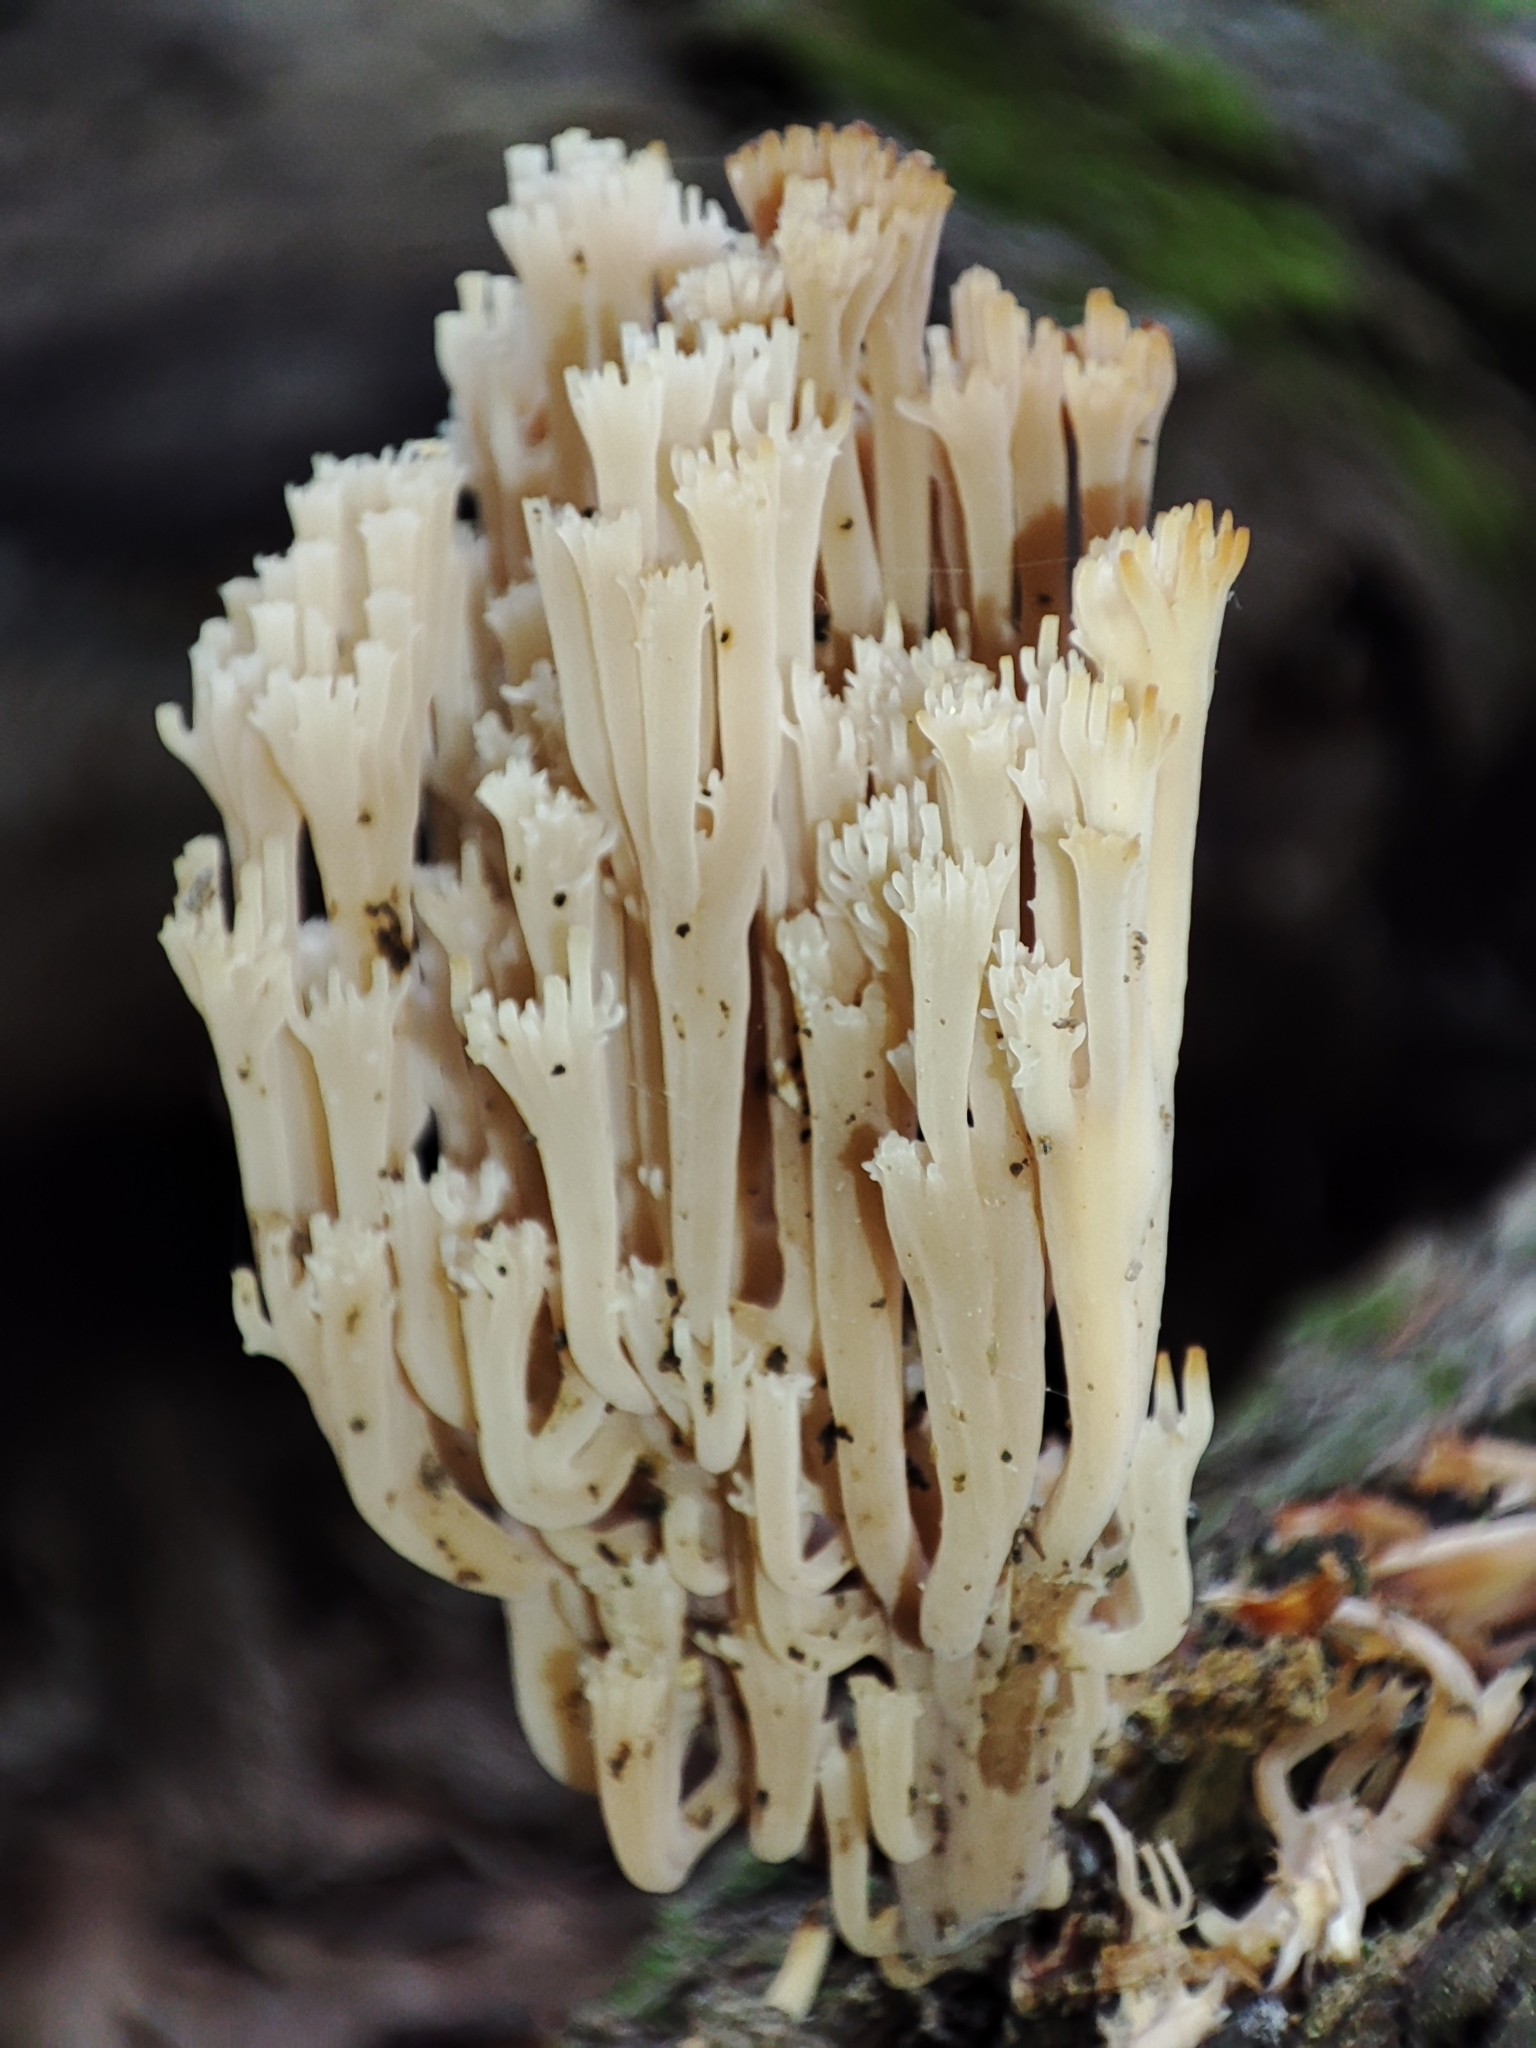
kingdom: Fungi
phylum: Basidiomycota
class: Agaricomycetes
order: Russulales
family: Auriscalpiaceae
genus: Artomyces
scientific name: Artomyces pyxidatus
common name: Crown-tipped coral fungus
